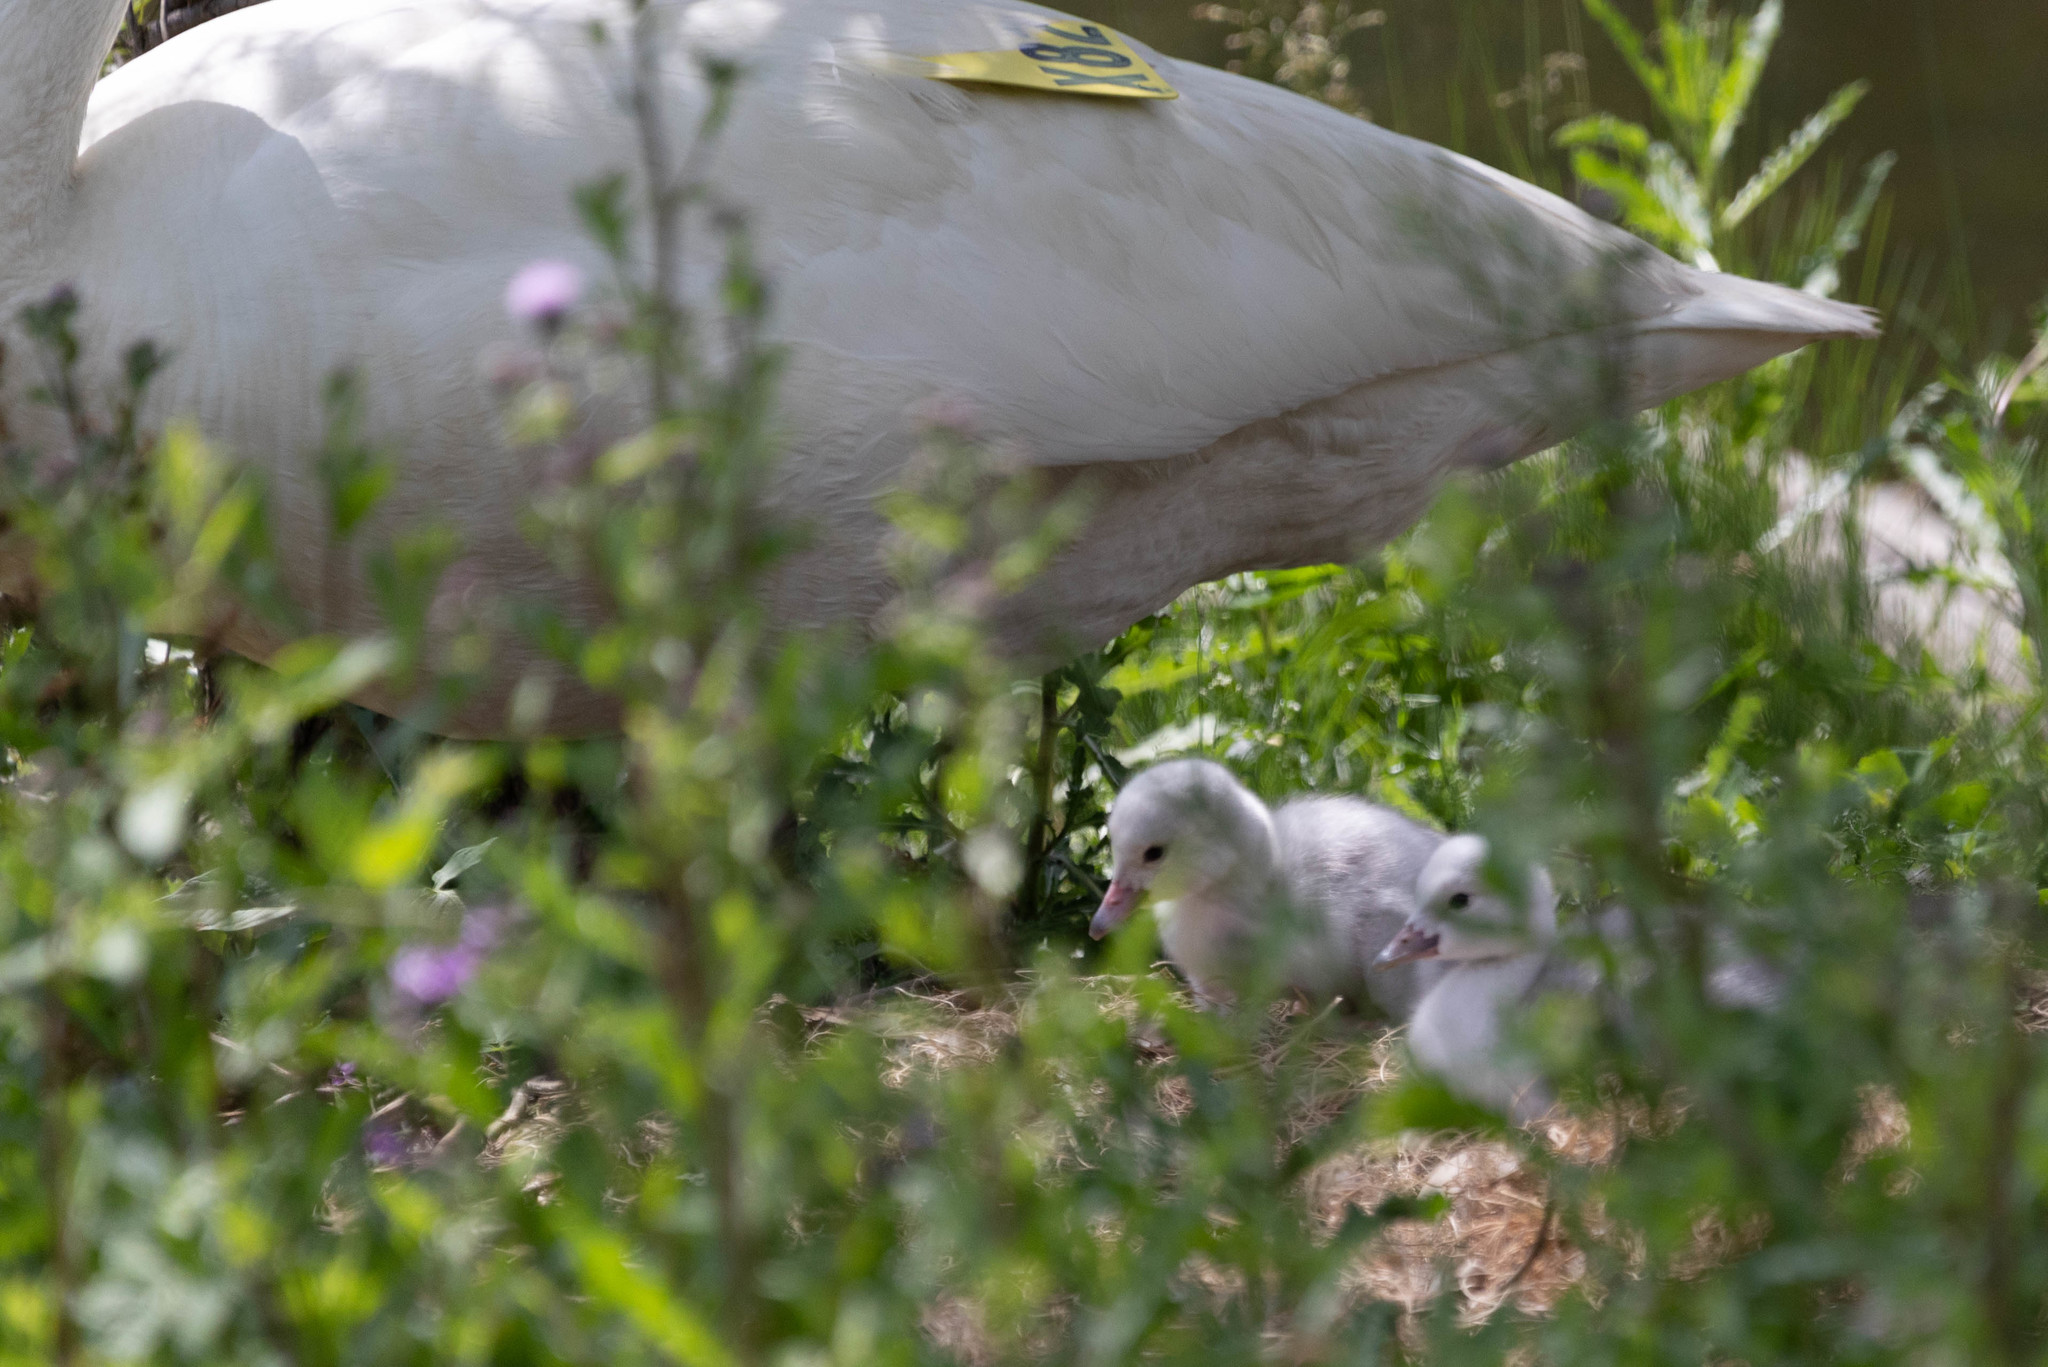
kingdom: Animalia
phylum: Chordata
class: Aves
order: Anseriformes
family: Anatidae
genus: Cygnus
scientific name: Cygnus buccinator
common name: Trumpeter swan
